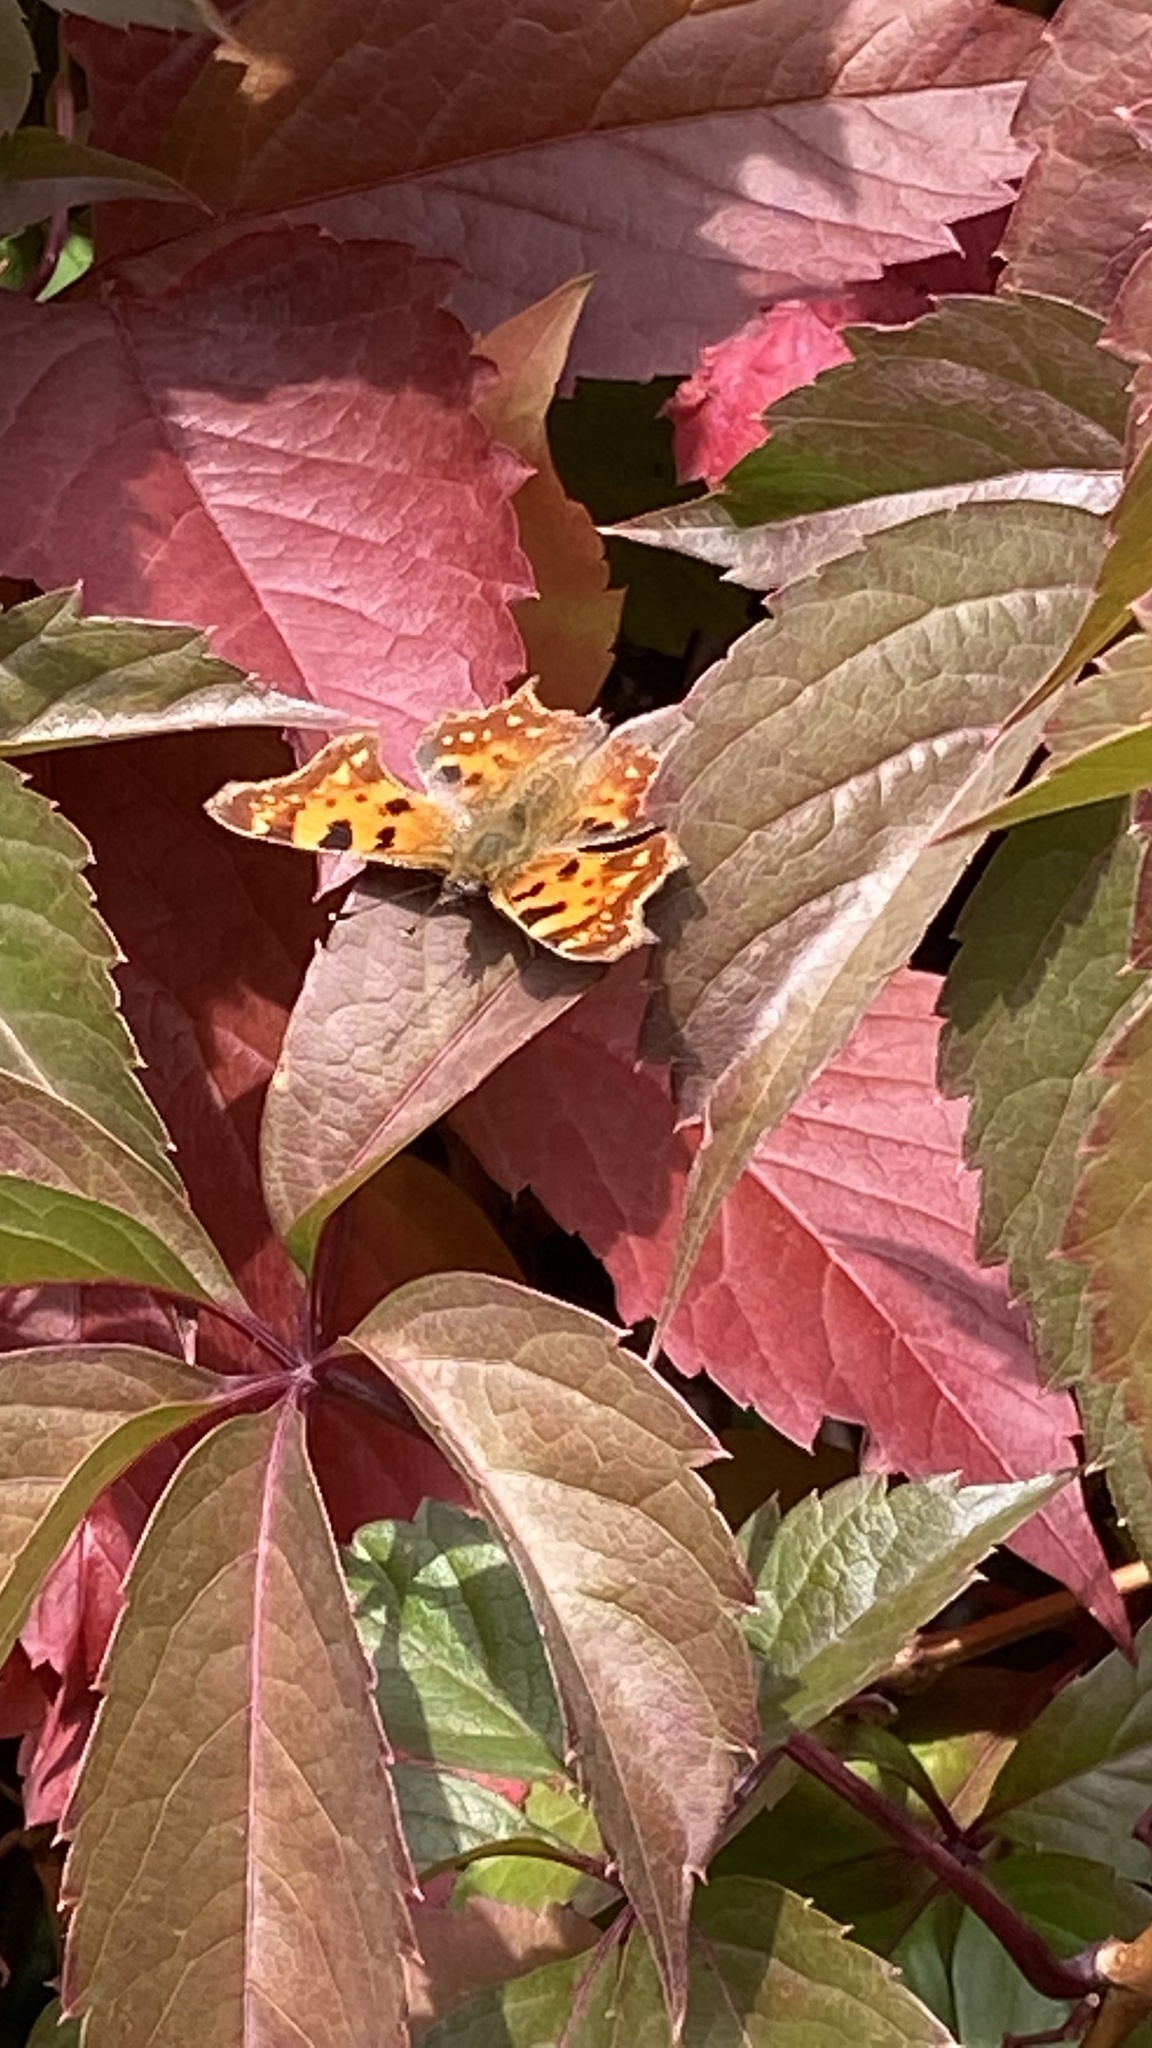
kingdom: Animalia
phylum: Arthropoda
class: Insecta
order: Lepidoptera
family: Nymphalidae
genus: Polygonia
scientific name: Polygonia c-album
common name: Comma
